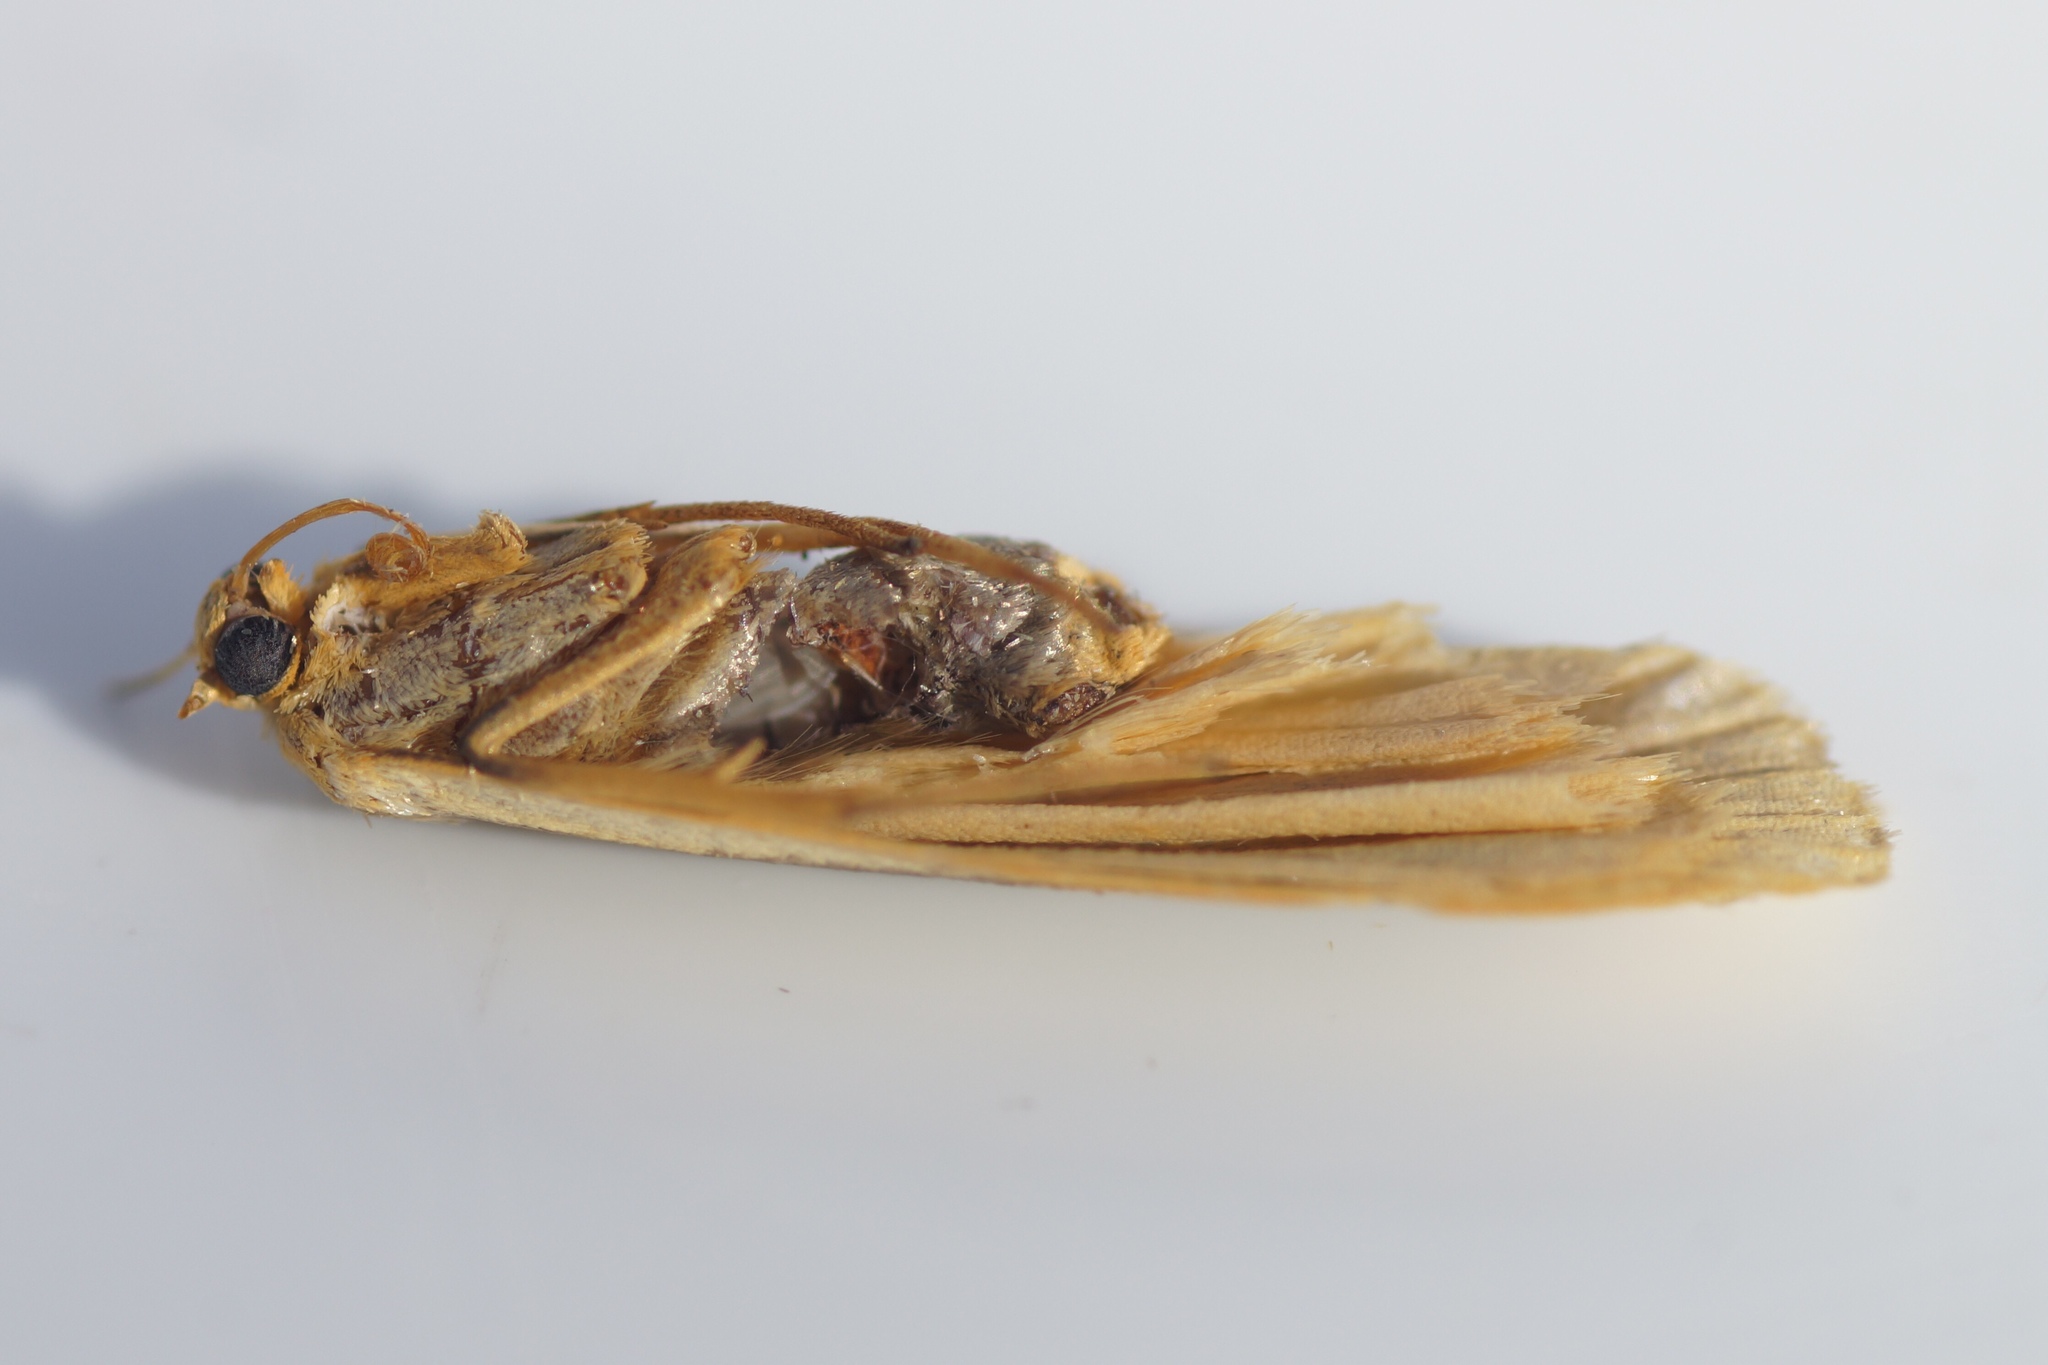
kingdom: Animalia
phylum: Arthropoda
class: Insecta
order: Lepidoptera
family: Erebidae
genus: Nyea
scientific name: Nyea lurideola
